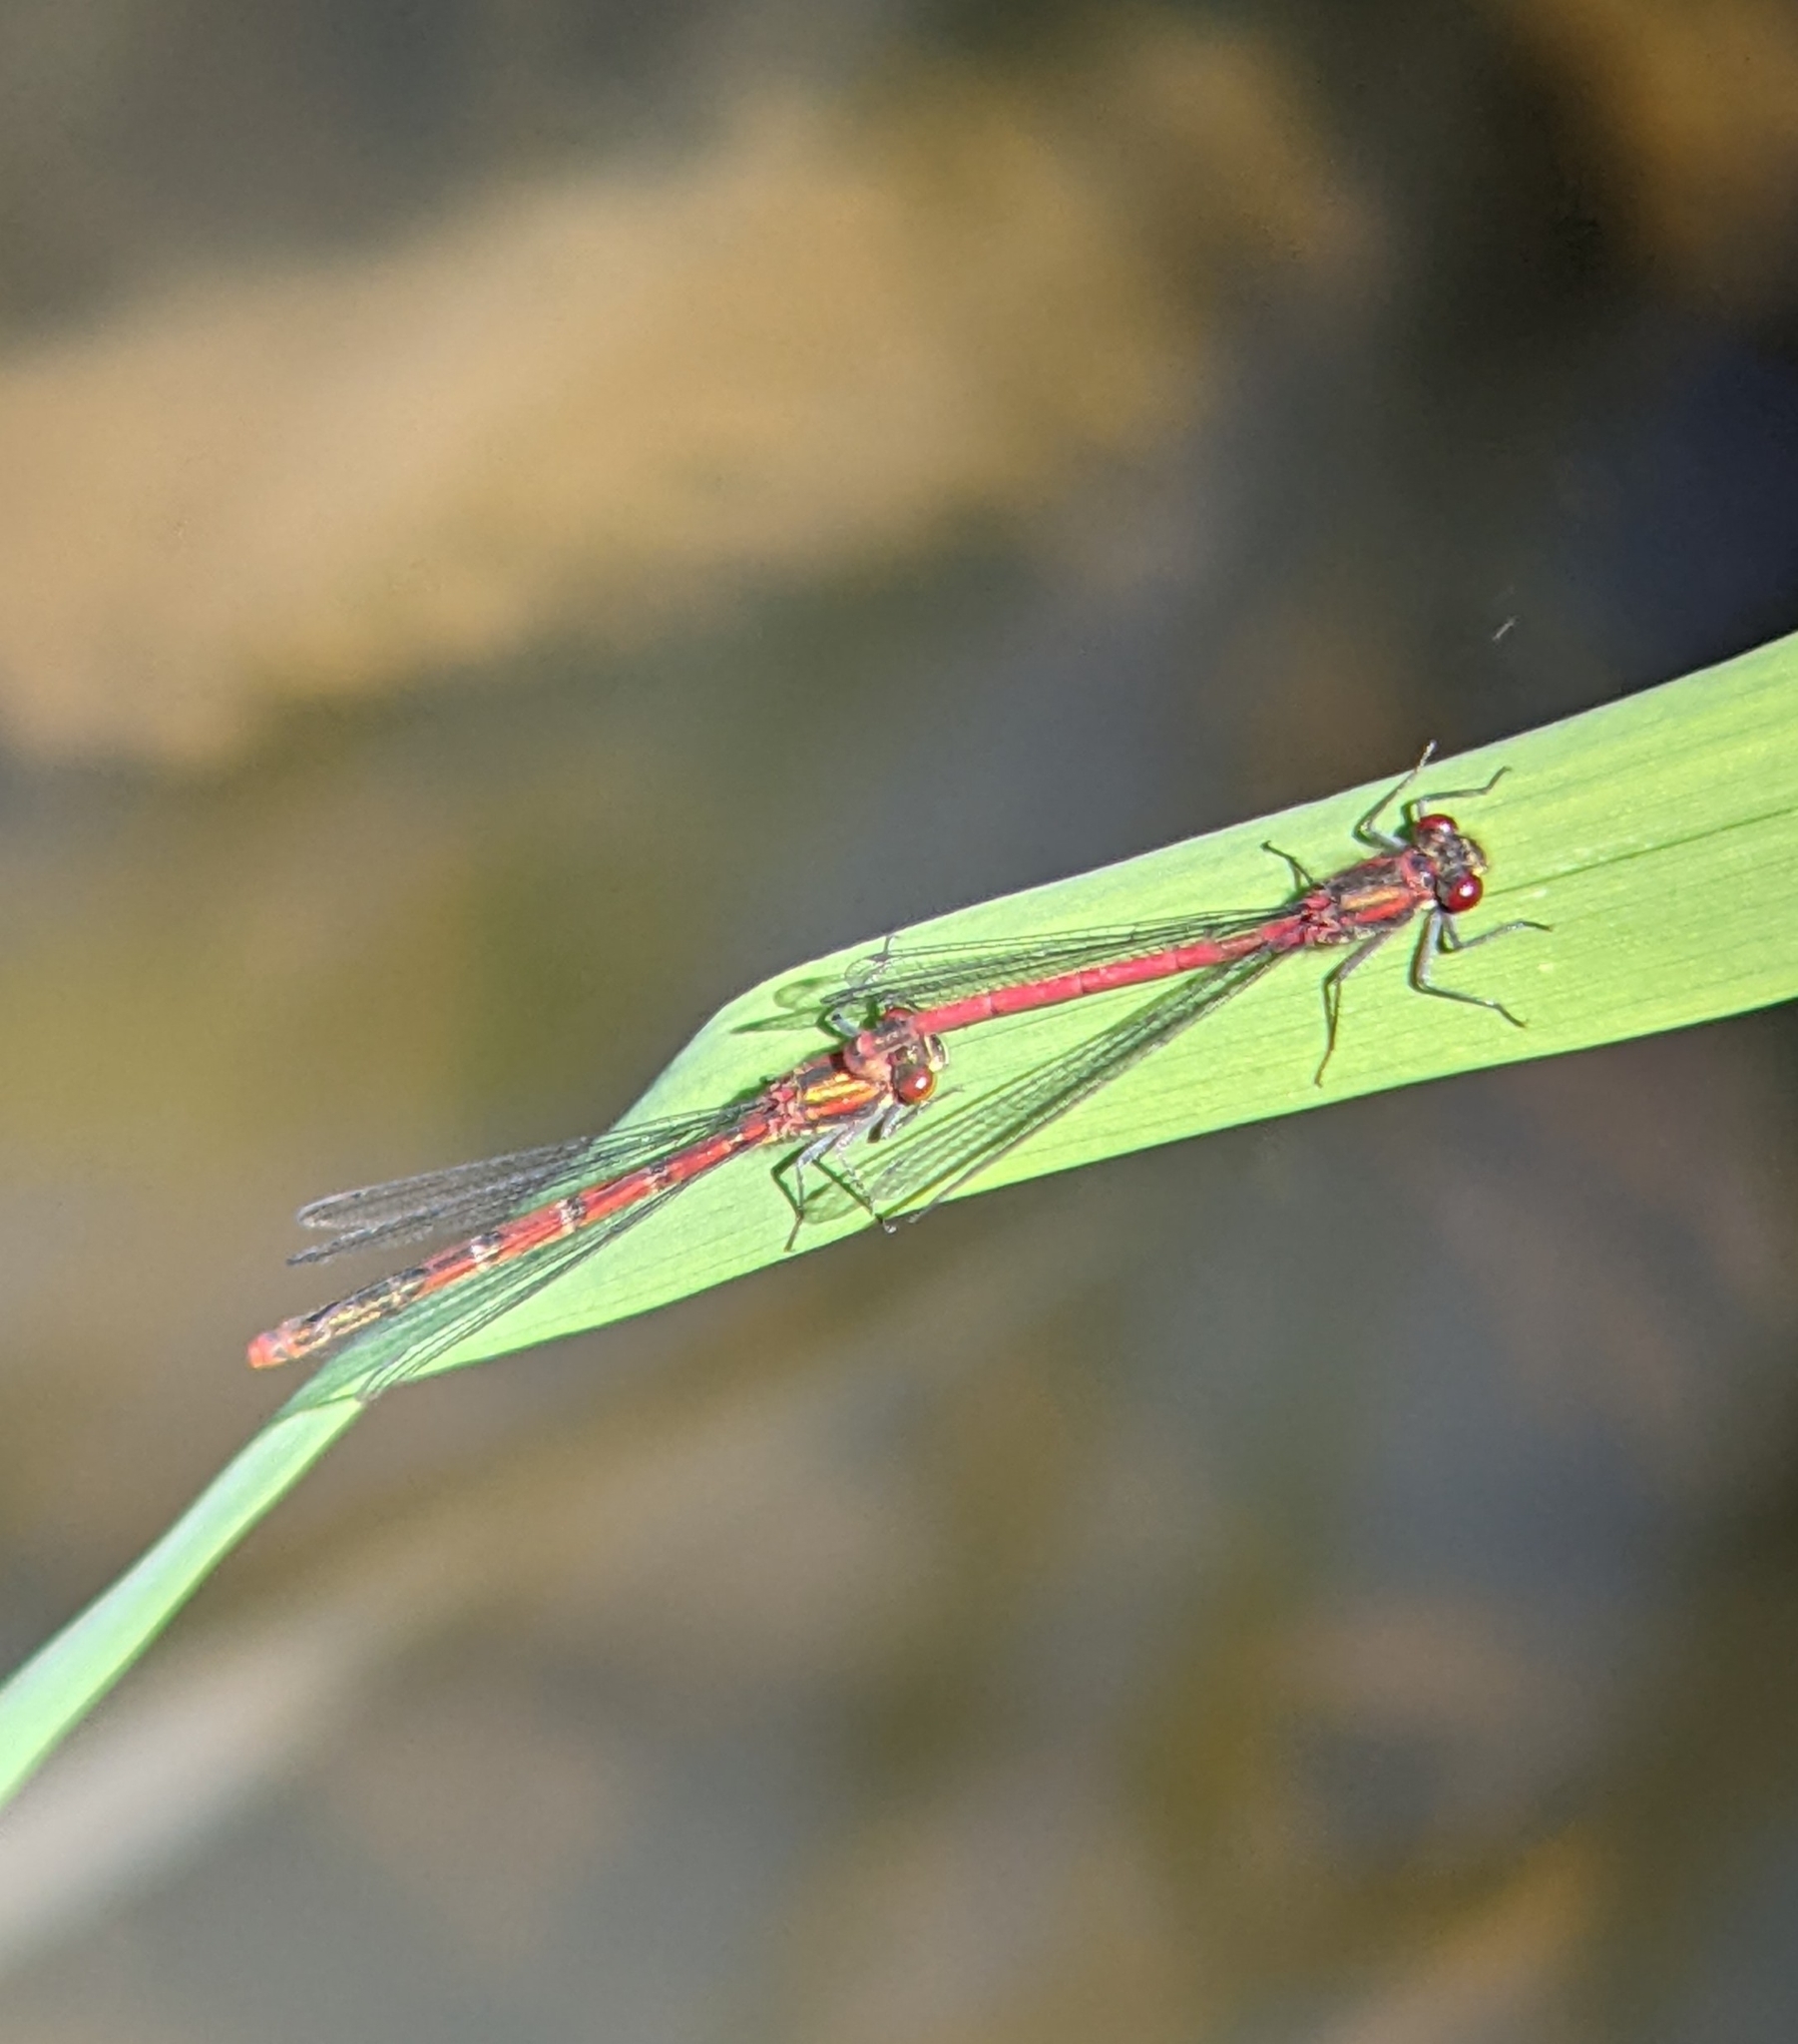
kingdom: Animalia
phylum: Arthropoda
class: Insecta
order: Odonata
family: Coenagrionidae
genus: Pyrrhosoma
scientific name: Pyrrhosoma nymphula
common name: Large red damsel
